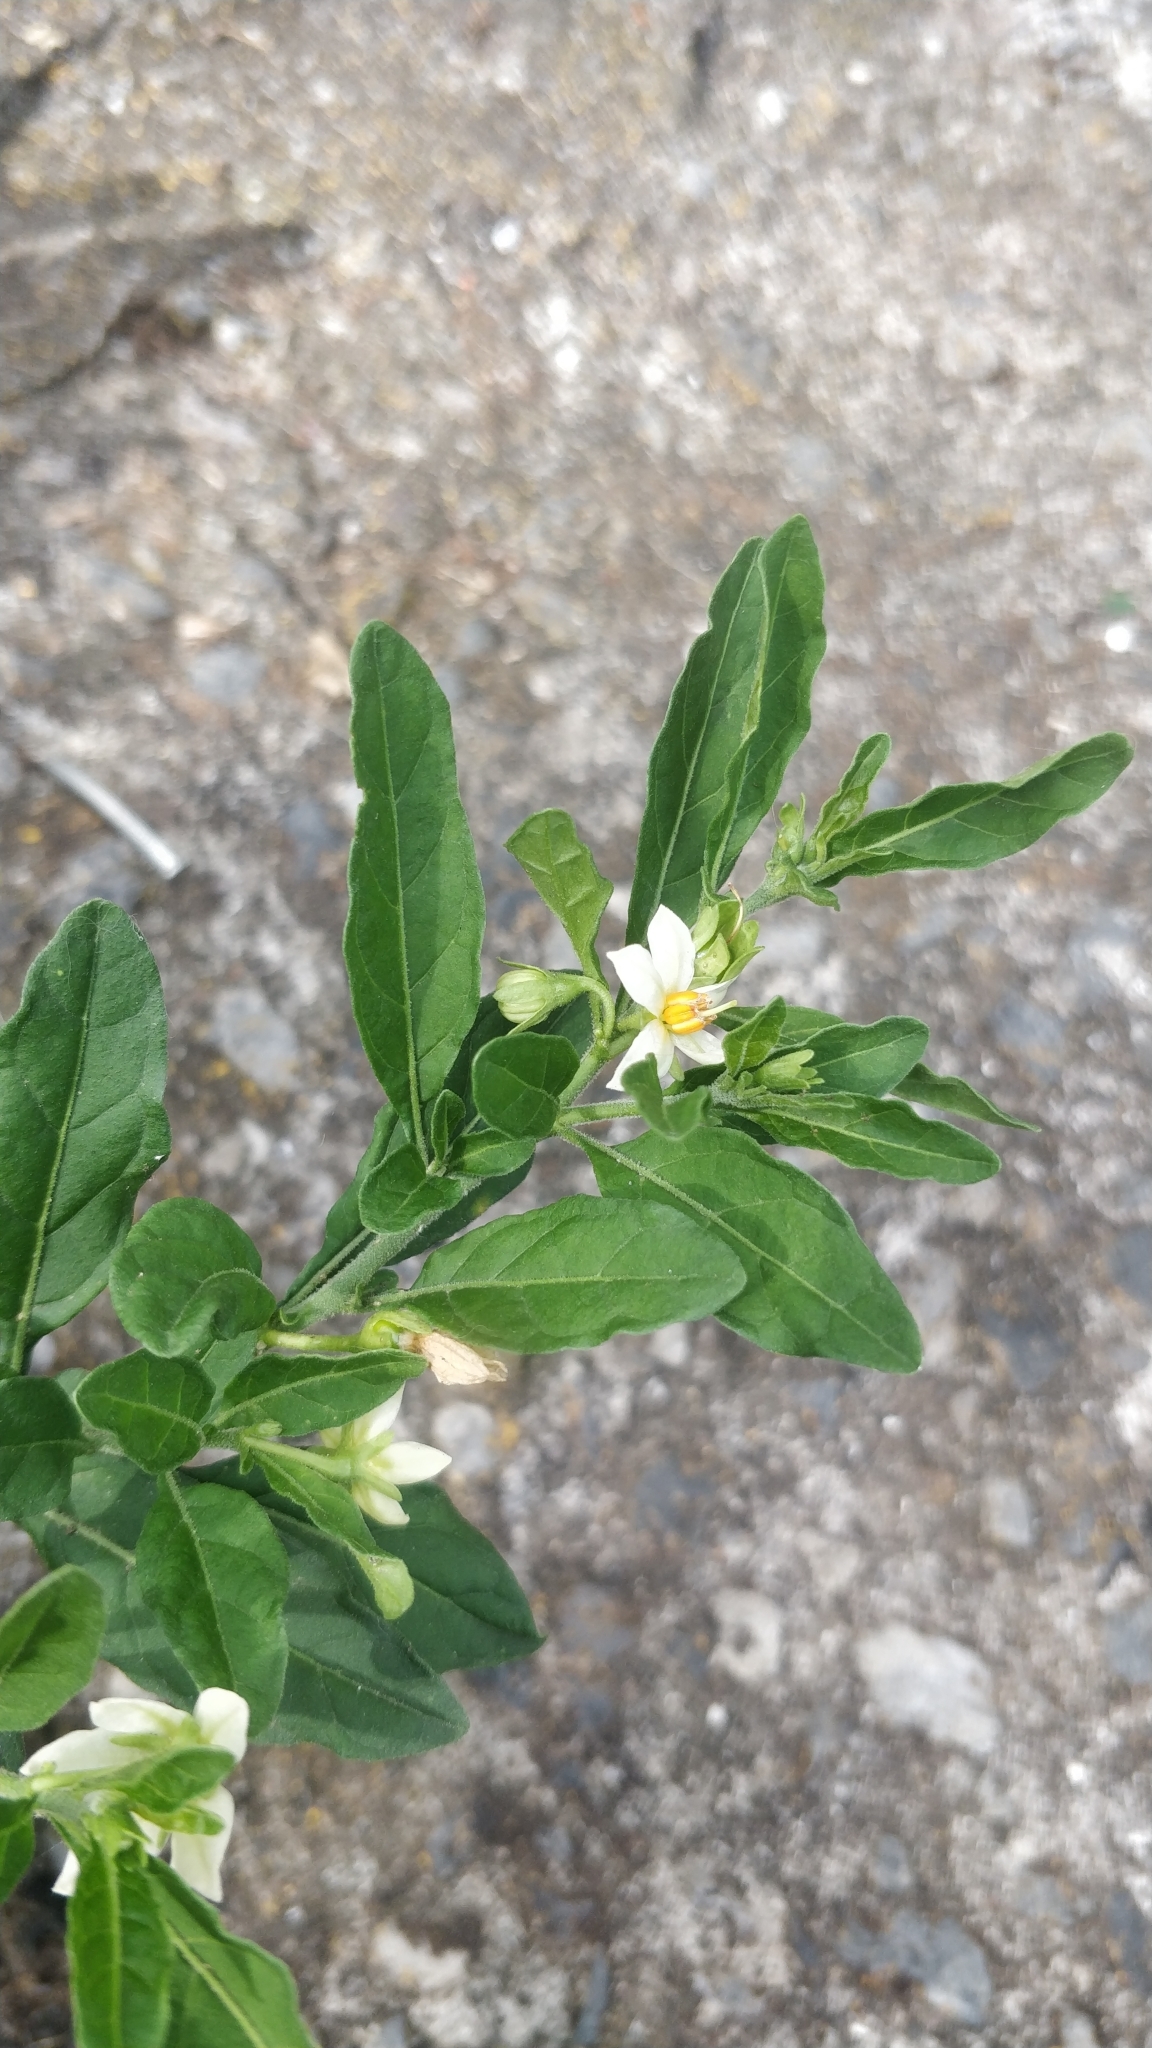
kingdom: Plantae
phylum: Tracheophyta
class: Magnoliopsida
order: Solanales
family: Solanaceae
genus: Solanum
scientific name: Solanum pseudocapsicum
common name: Jerusalem cherry
